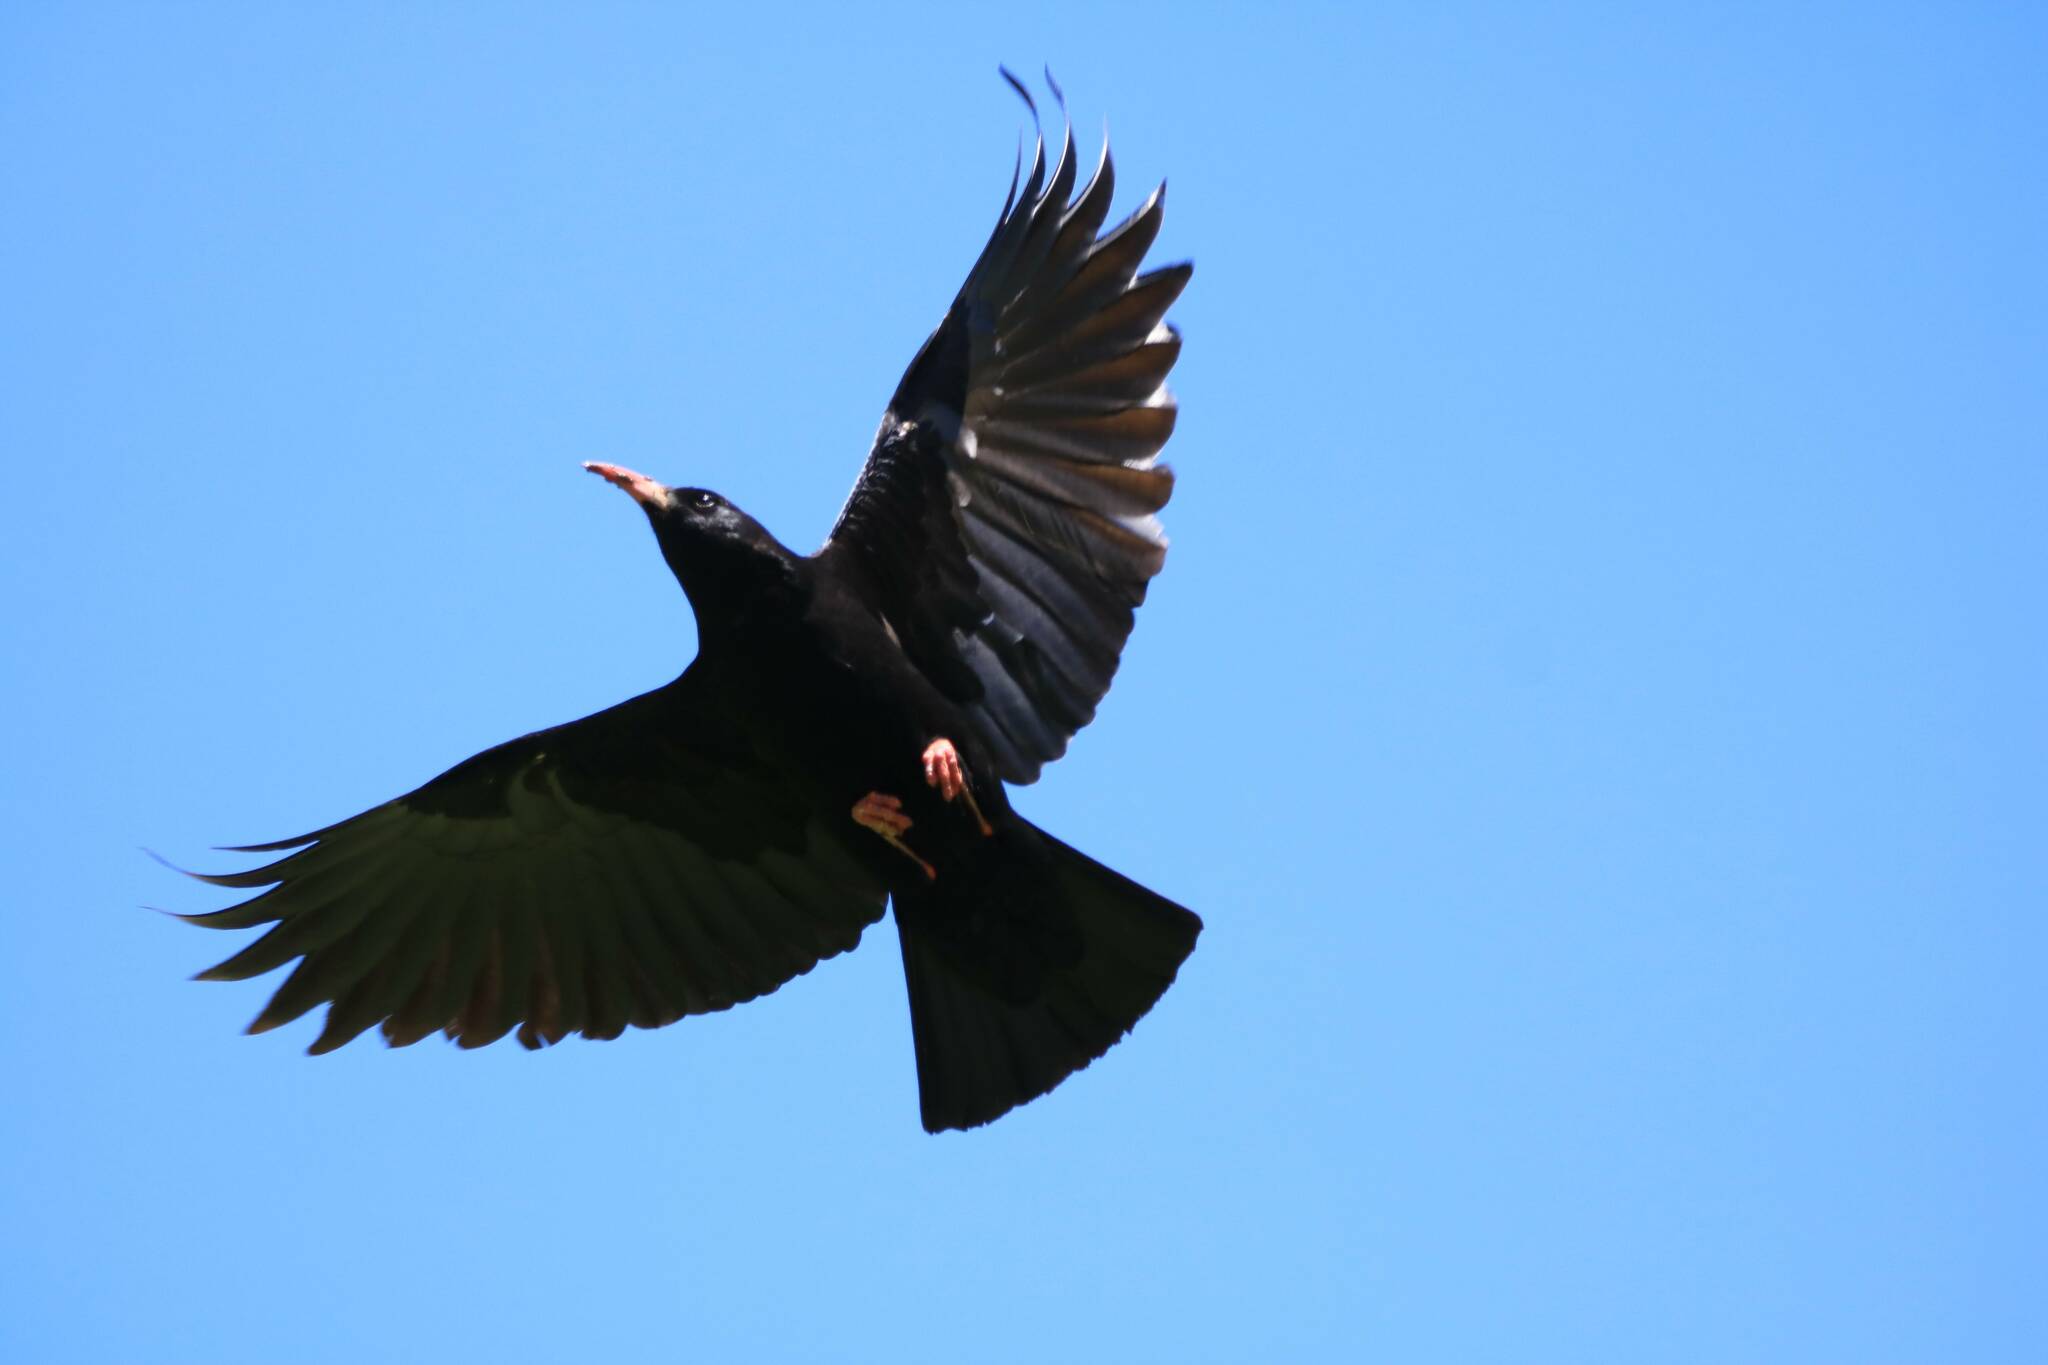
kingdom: Animalia
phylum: Chordata
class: Aves
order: Passeriformes
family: Corvidae
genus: Pyrrhocorax
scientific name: Pyrrhocorax pyrrhocorax
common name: Red-billed chough
